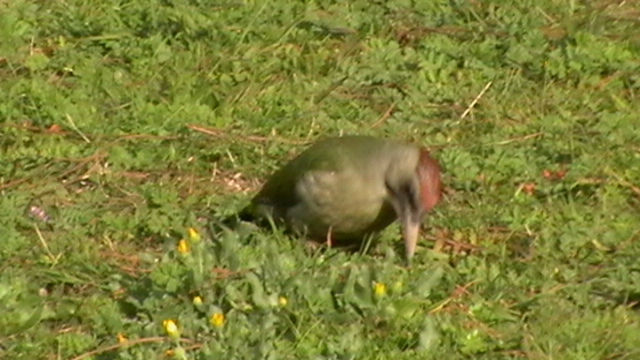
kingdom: Animalia
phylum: Chordata
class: Aves
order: Piciformes
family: Picidae
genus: Picus
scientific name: Picus sharpei
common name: Iberian green woodpecker
